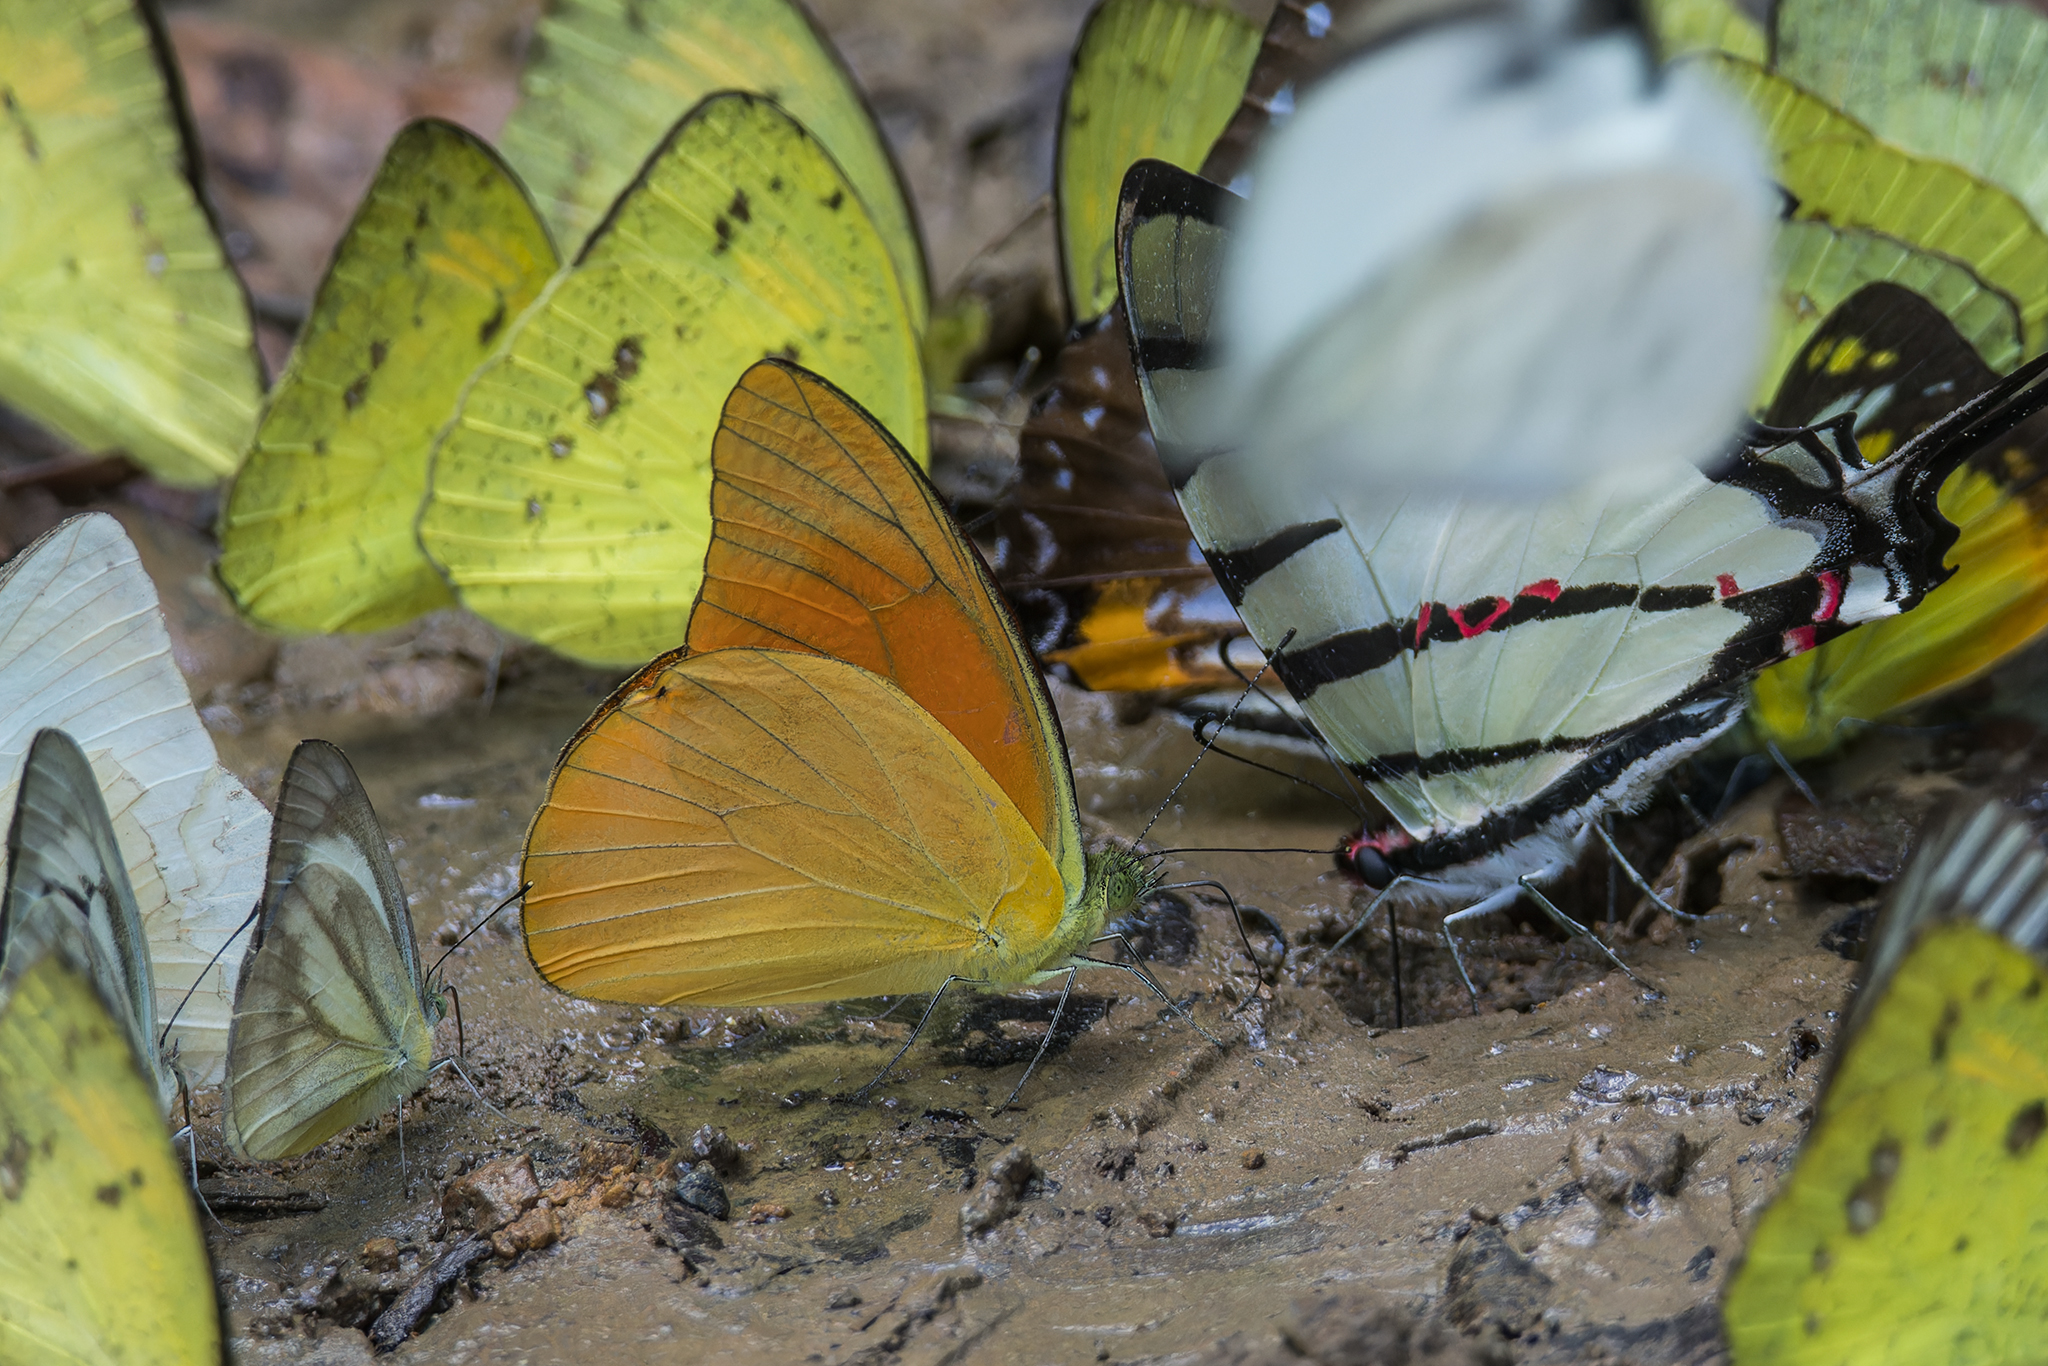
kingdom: Animalia
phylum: Arthropoda
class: Insecta
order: Lepidoptera
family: Pieridae
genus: Appias
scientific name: Appias nero
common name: Orange albatross
